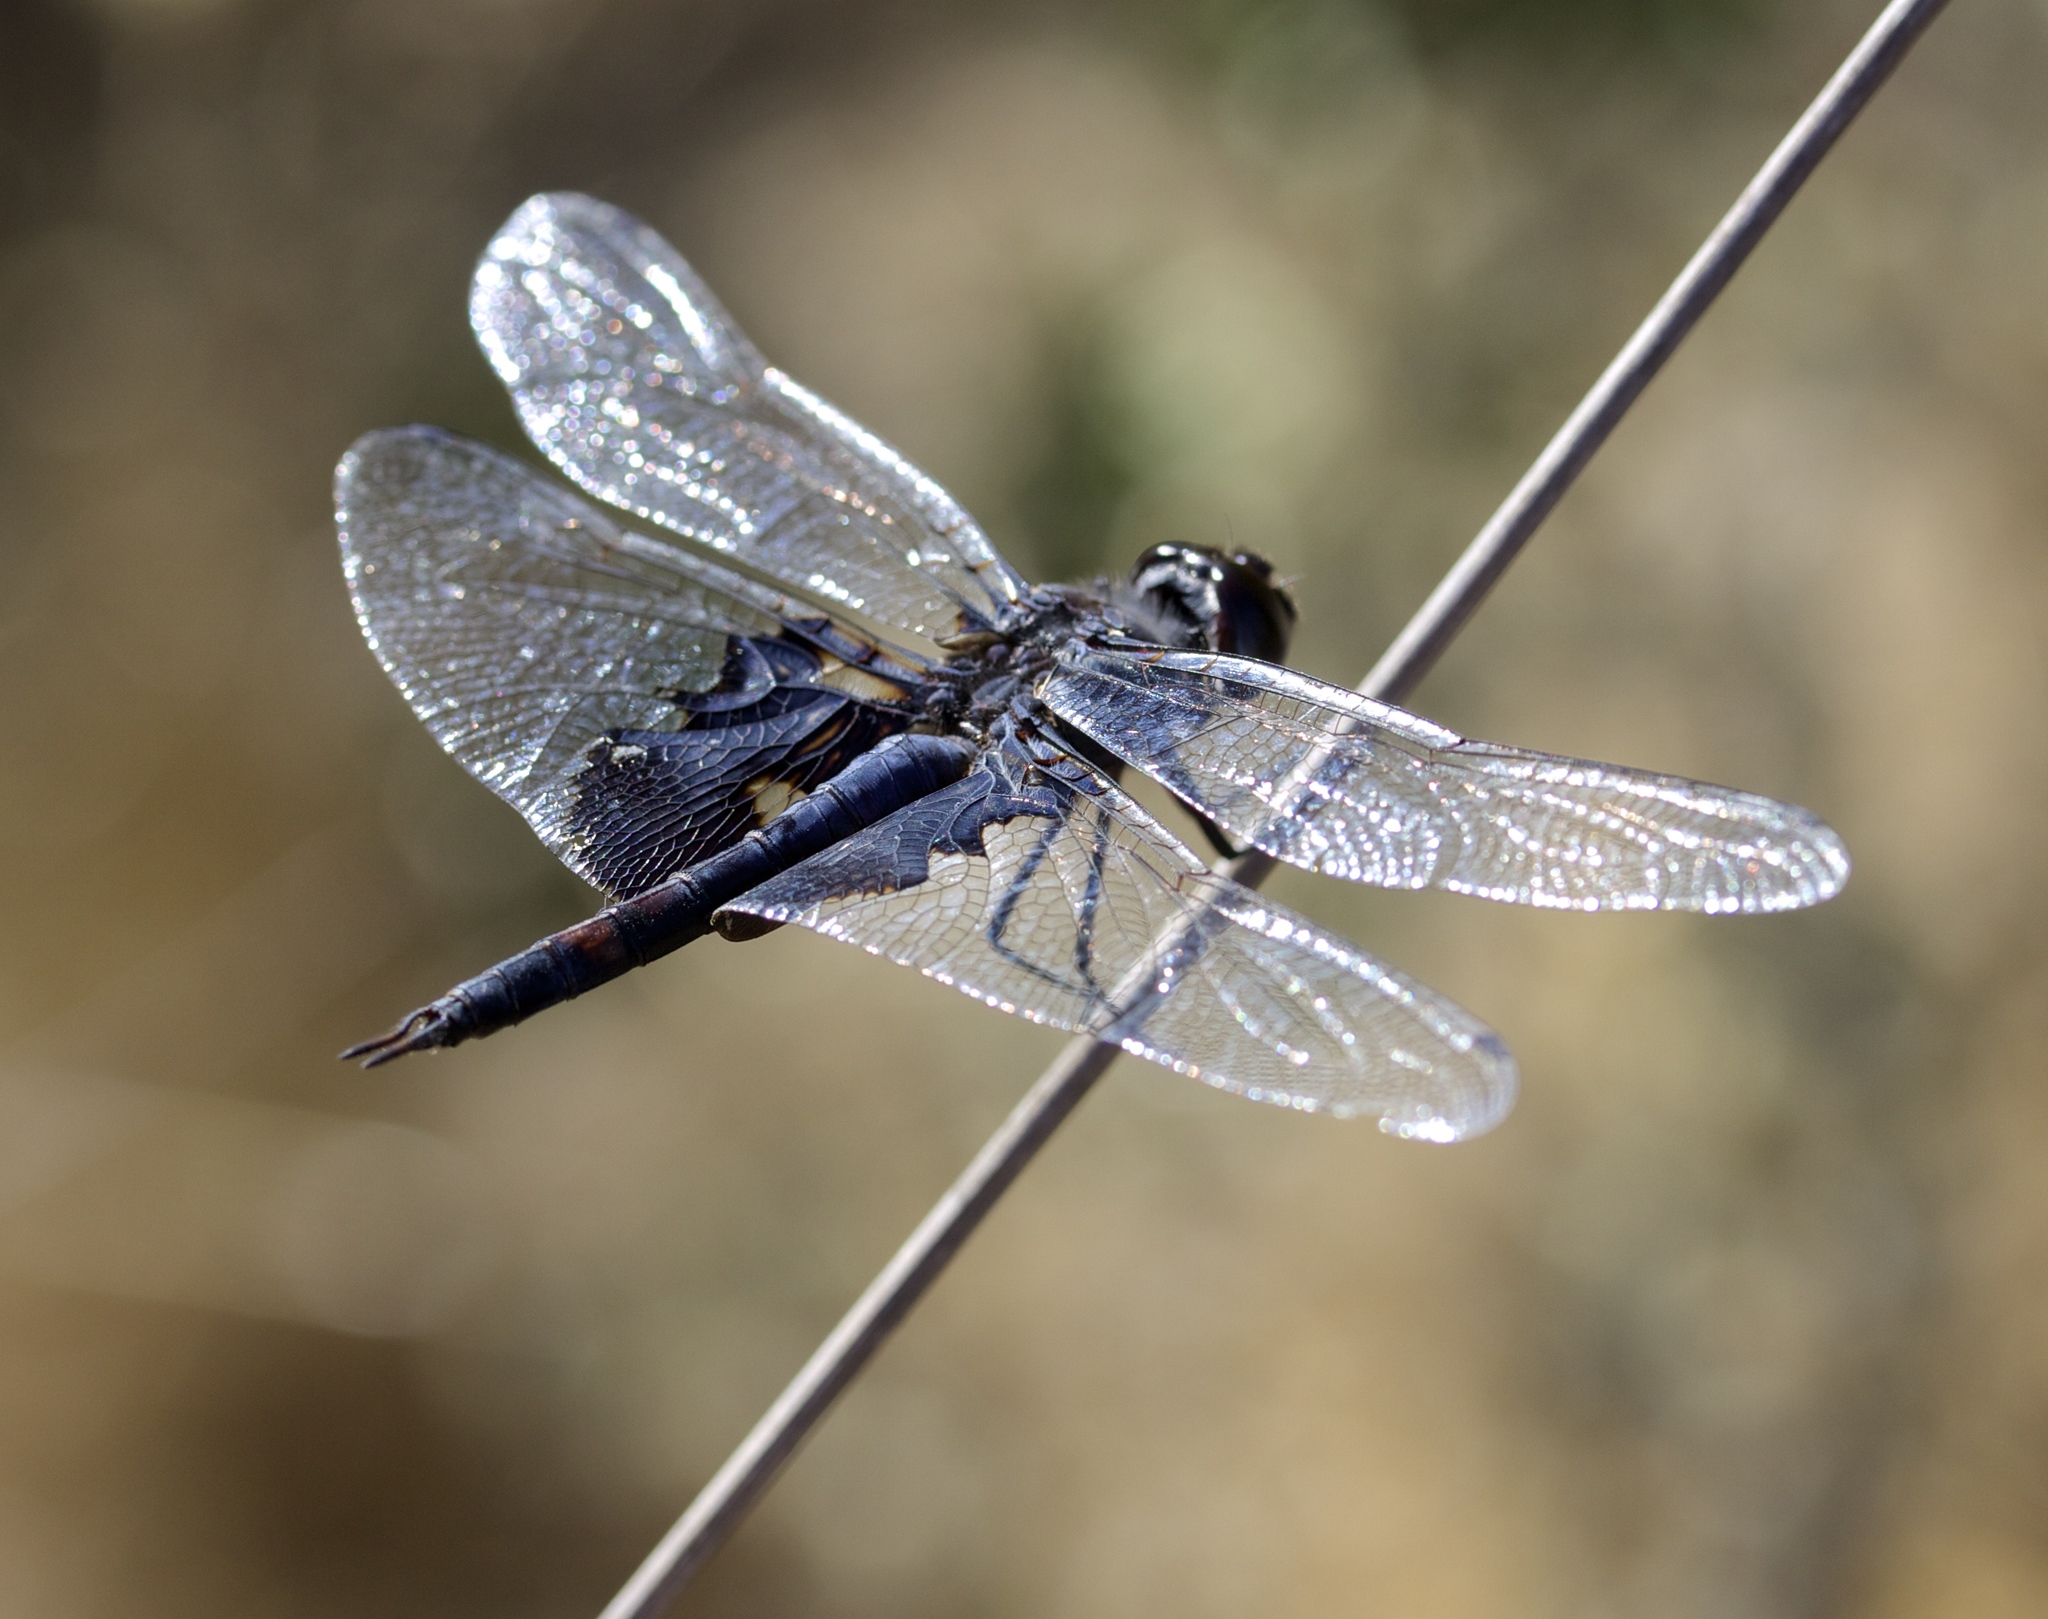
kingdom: Animalia
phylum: Arthropoda
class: Insecta
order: Odonata
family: Libellulidae
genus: Tramea
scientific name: Tramea lacerata
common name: Black saddlebags
